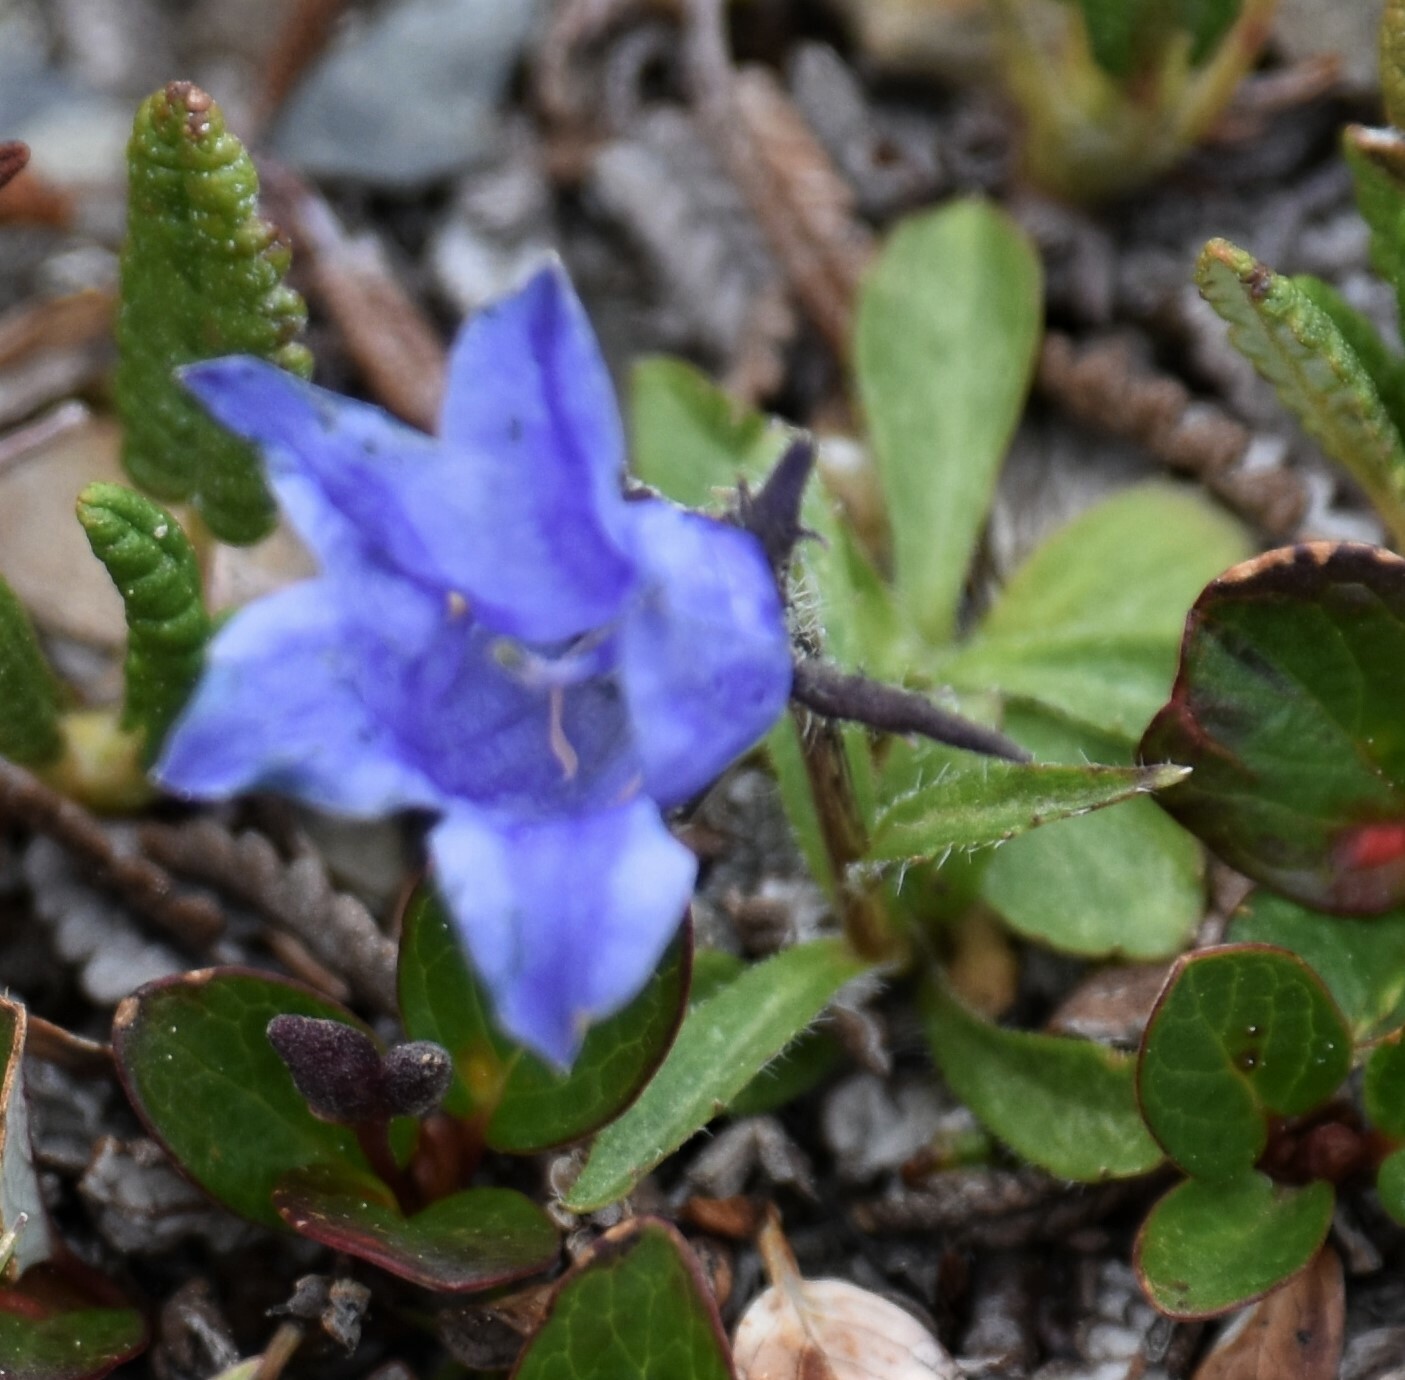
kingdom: Plantae
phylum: Tracheophyta
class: Magnoliopsida
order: Asterales
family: Campanulaceae
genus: Campanula
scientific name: Campanula lasiocarpa
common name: Mountain harebell
